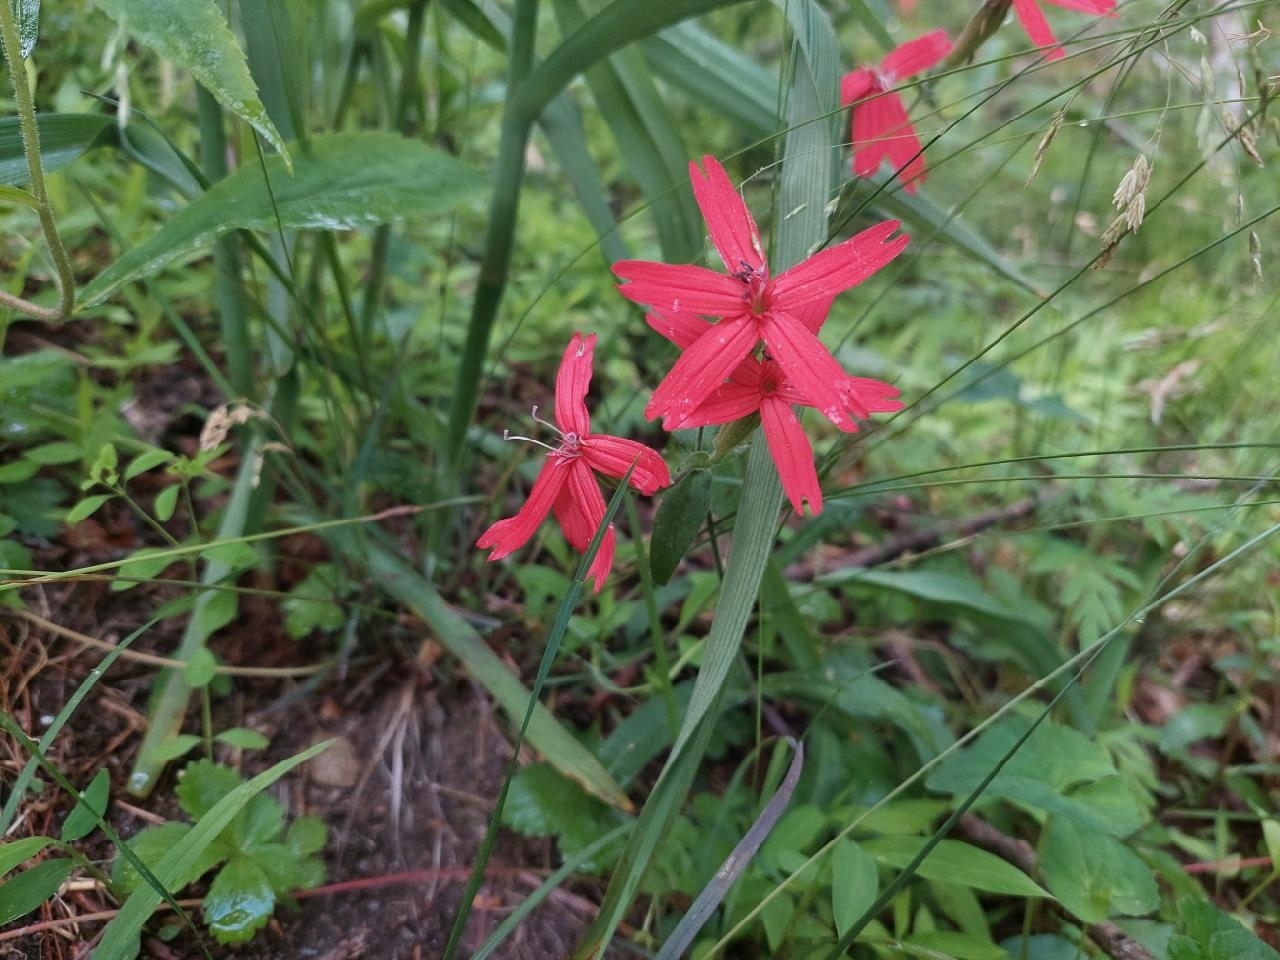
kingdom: Plantae
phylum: Tracheophyta
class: Magnoliopsida
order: Caryophyllales
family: Caryophyllaceae
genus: Silene
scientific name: Silene virginica
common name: Fire-pink
